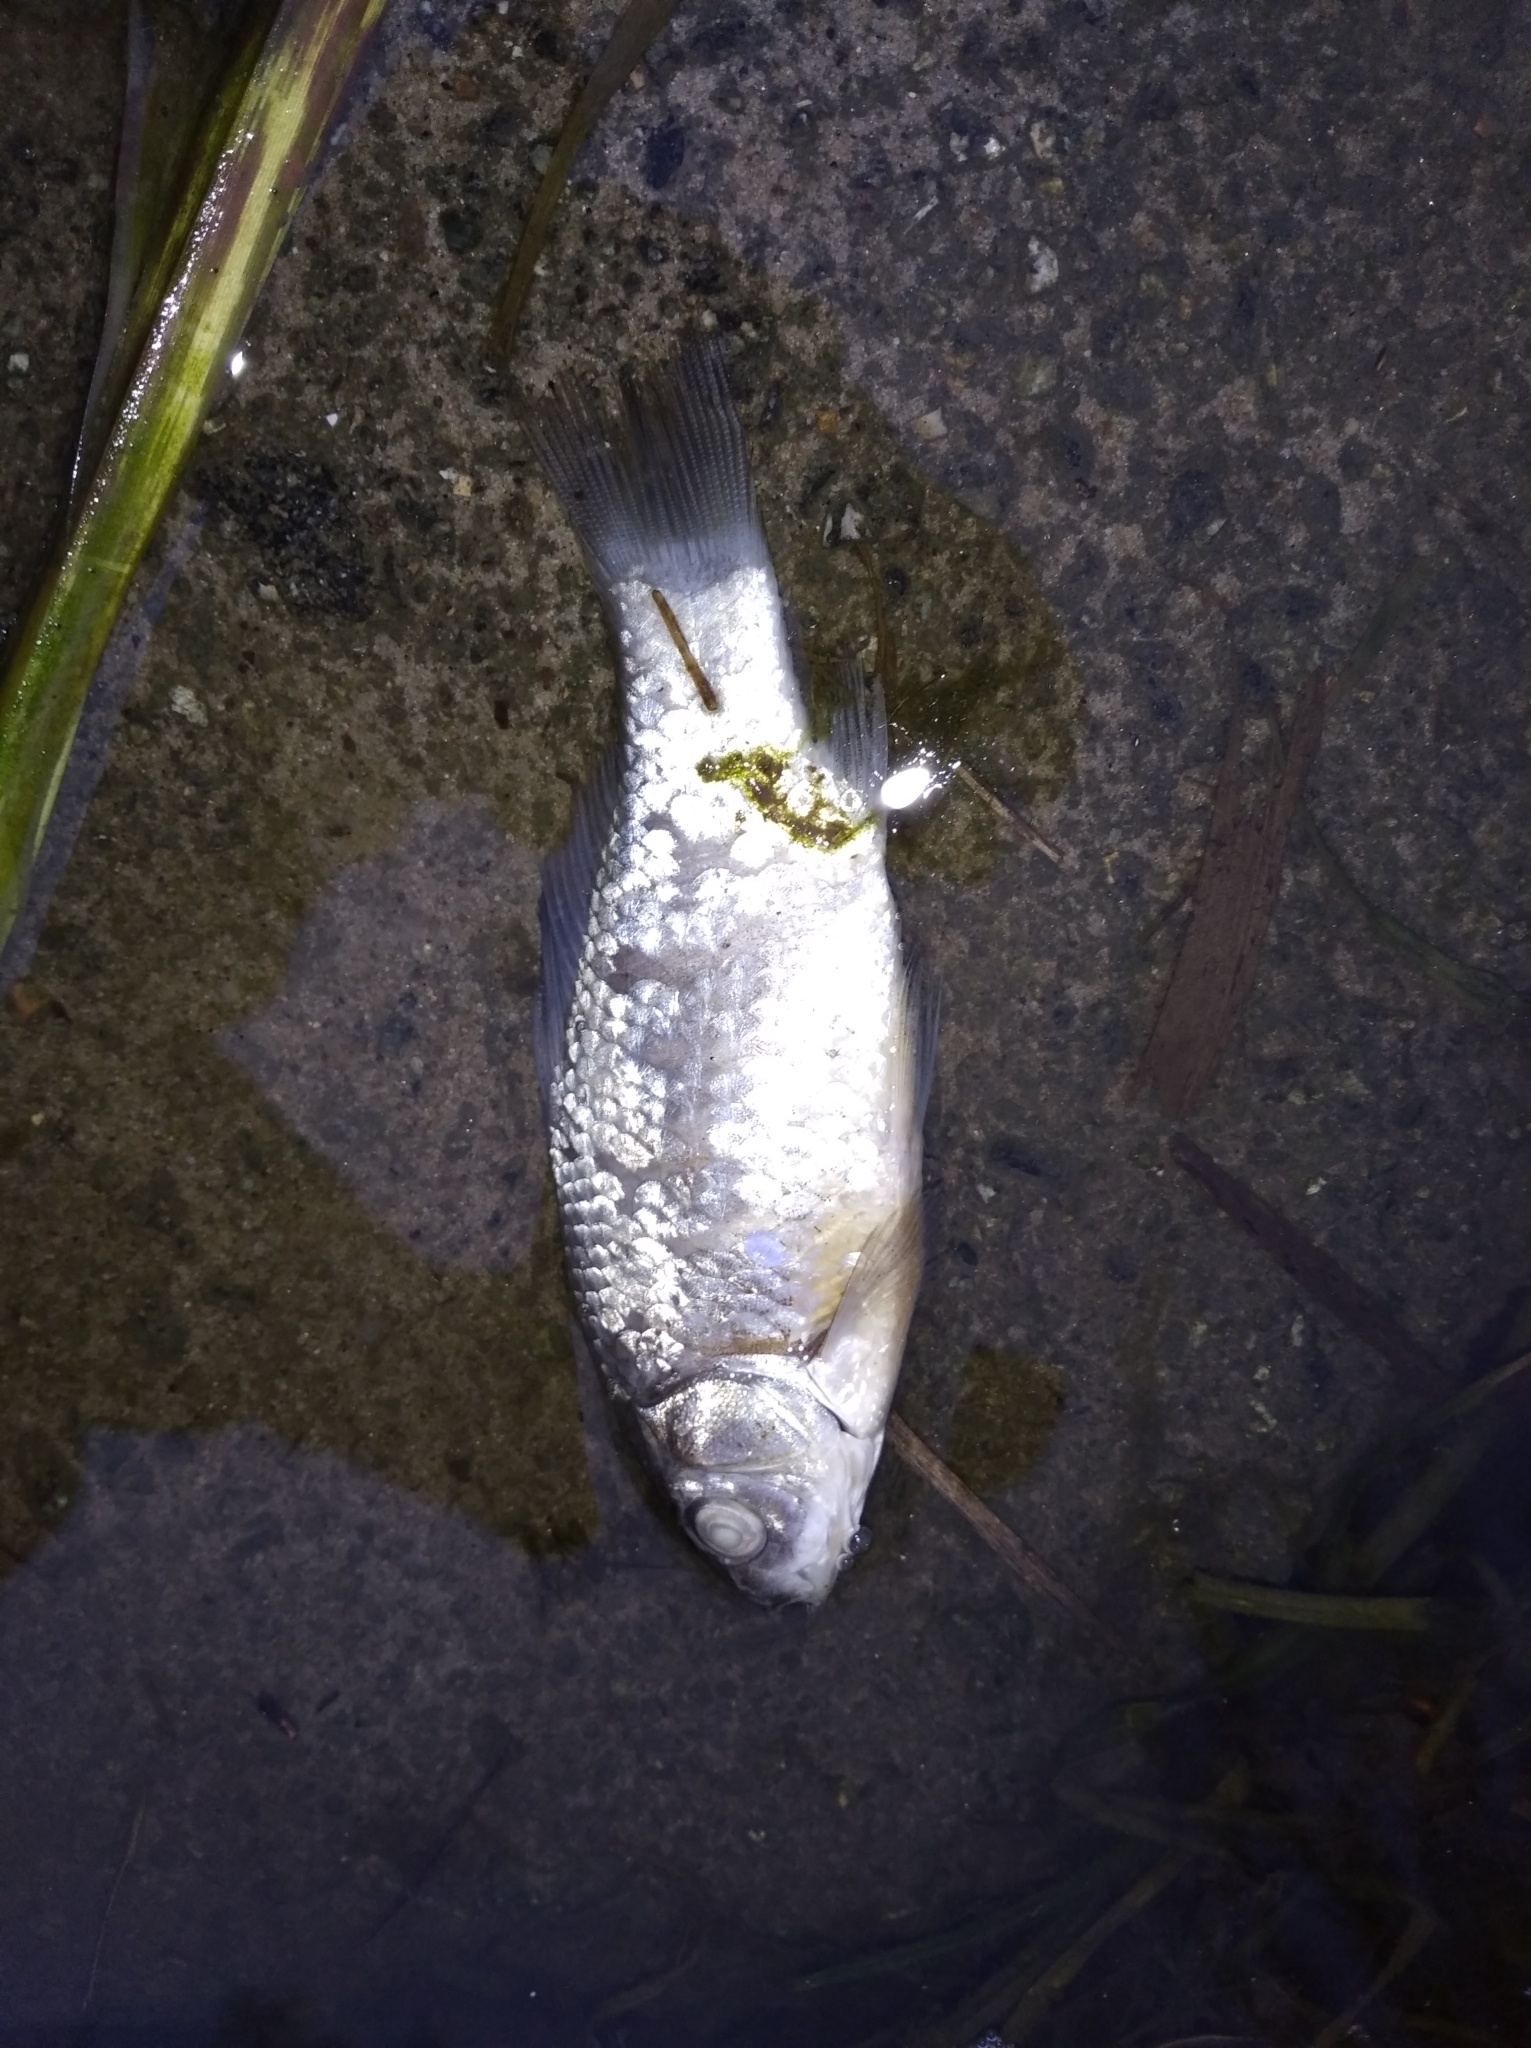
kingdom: Animalia
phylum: Chordata
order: Cypriniformes
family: Cyprinidae
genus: Carassius
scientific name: Carassius gibelio
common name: Prussian carp
